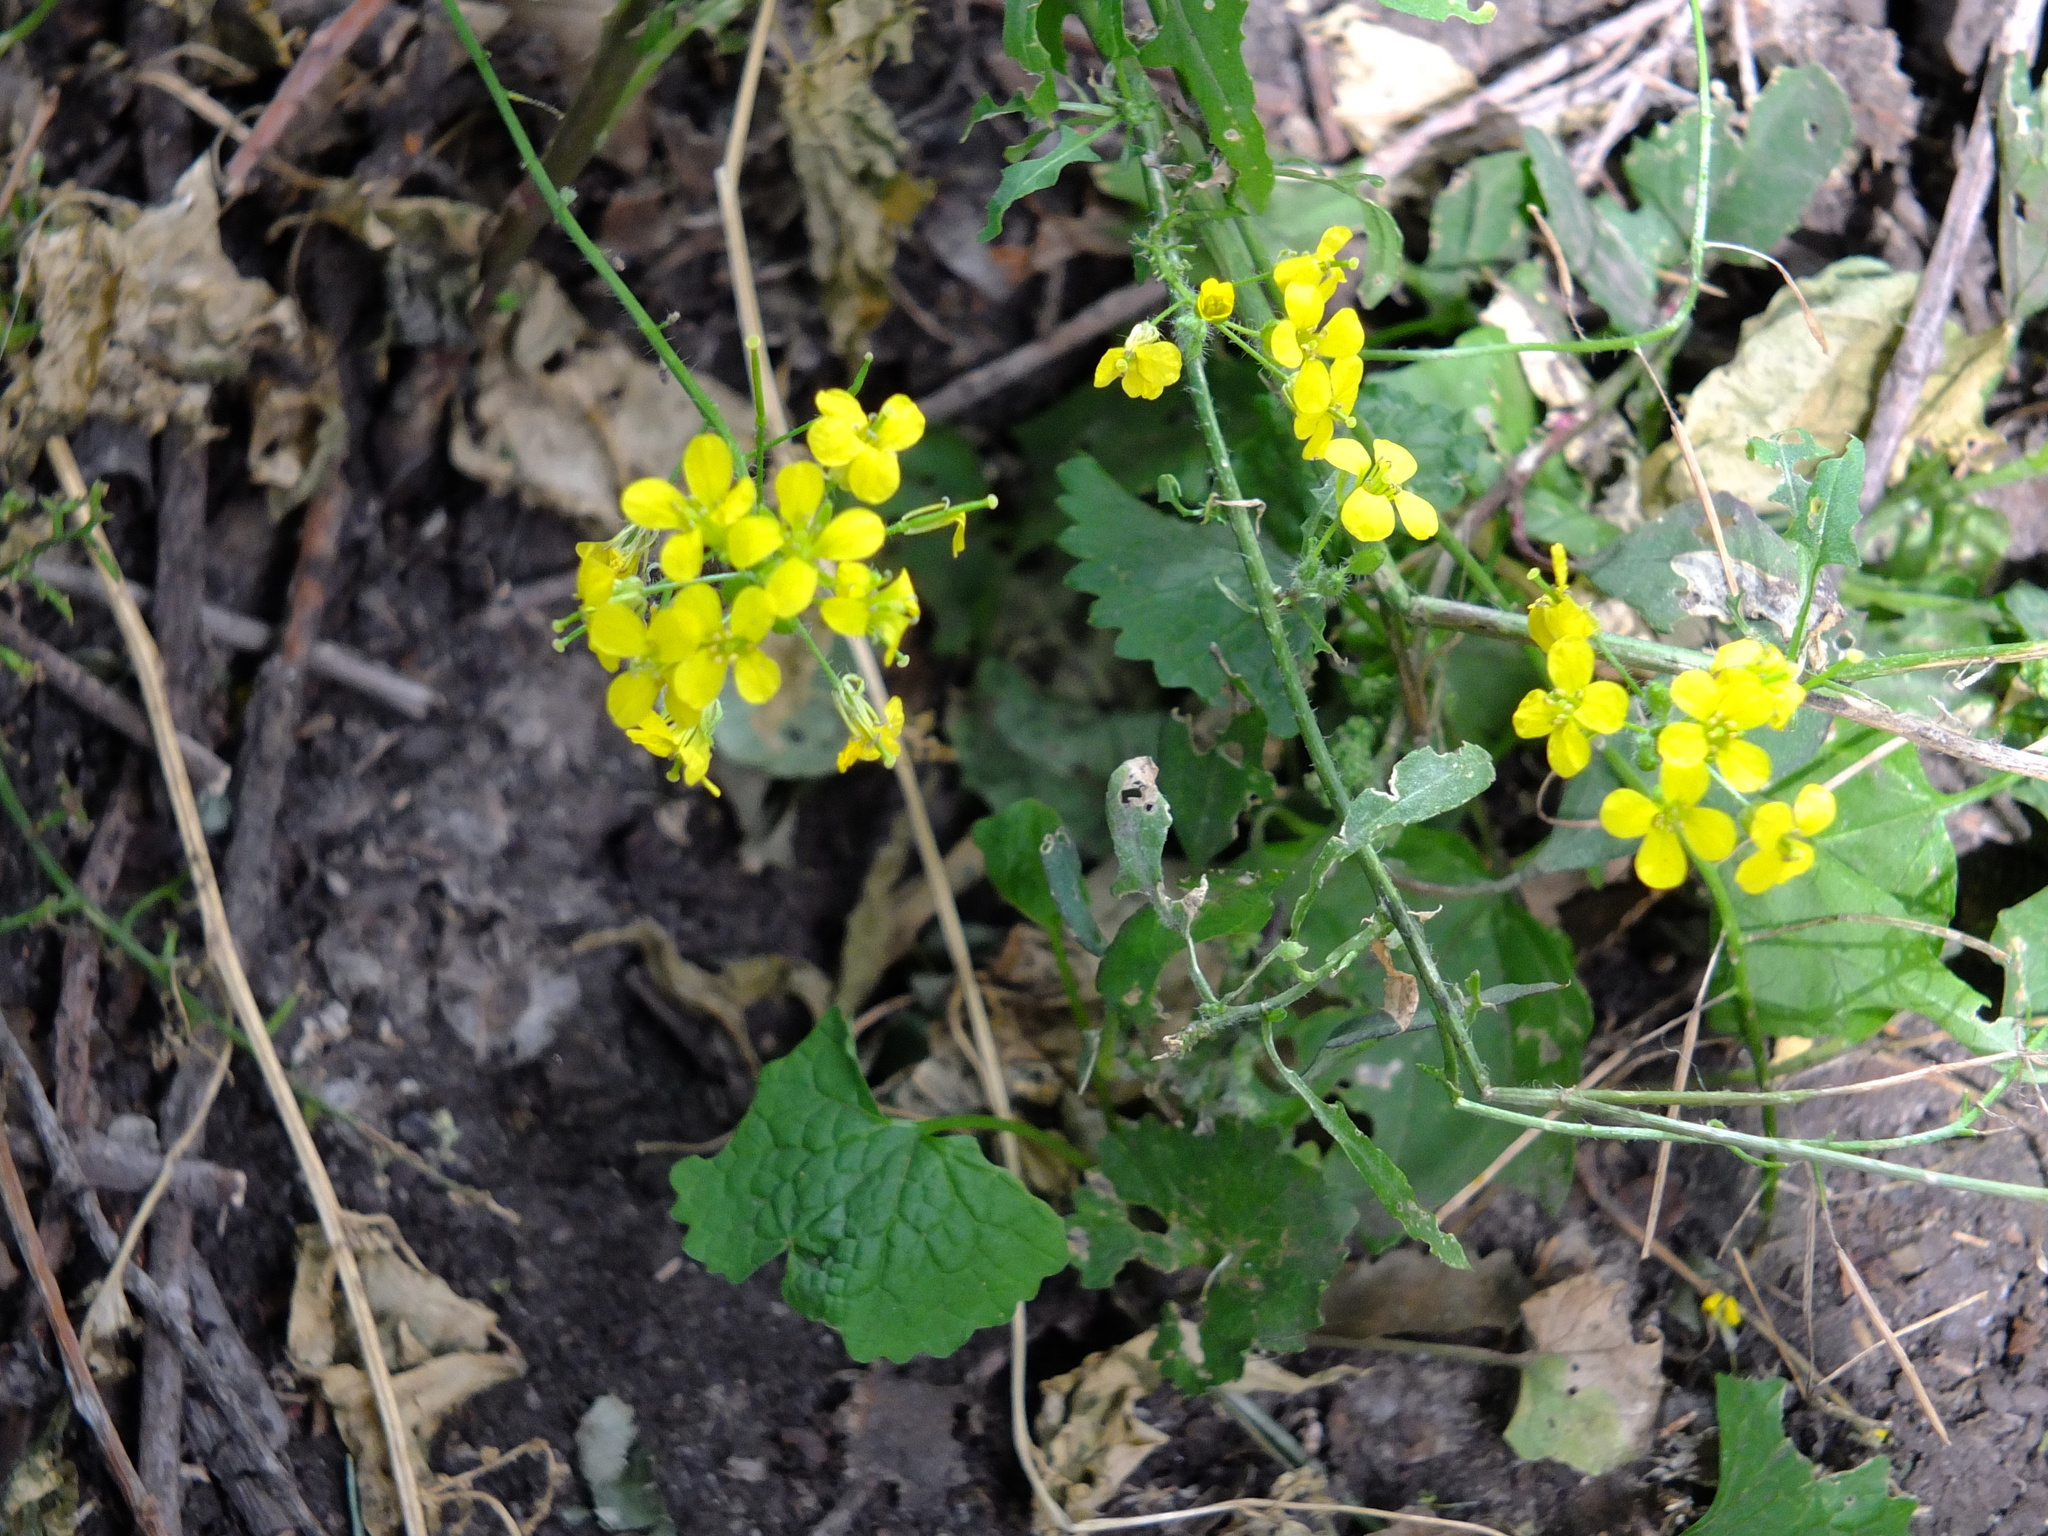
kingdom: Plantae
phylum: Tracheophyta
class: Magnoliopsida
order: Brassicales
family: Brassicaceae
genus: Sisymbrium
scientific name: Sisymbrium loeselii
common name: False london-rocket
